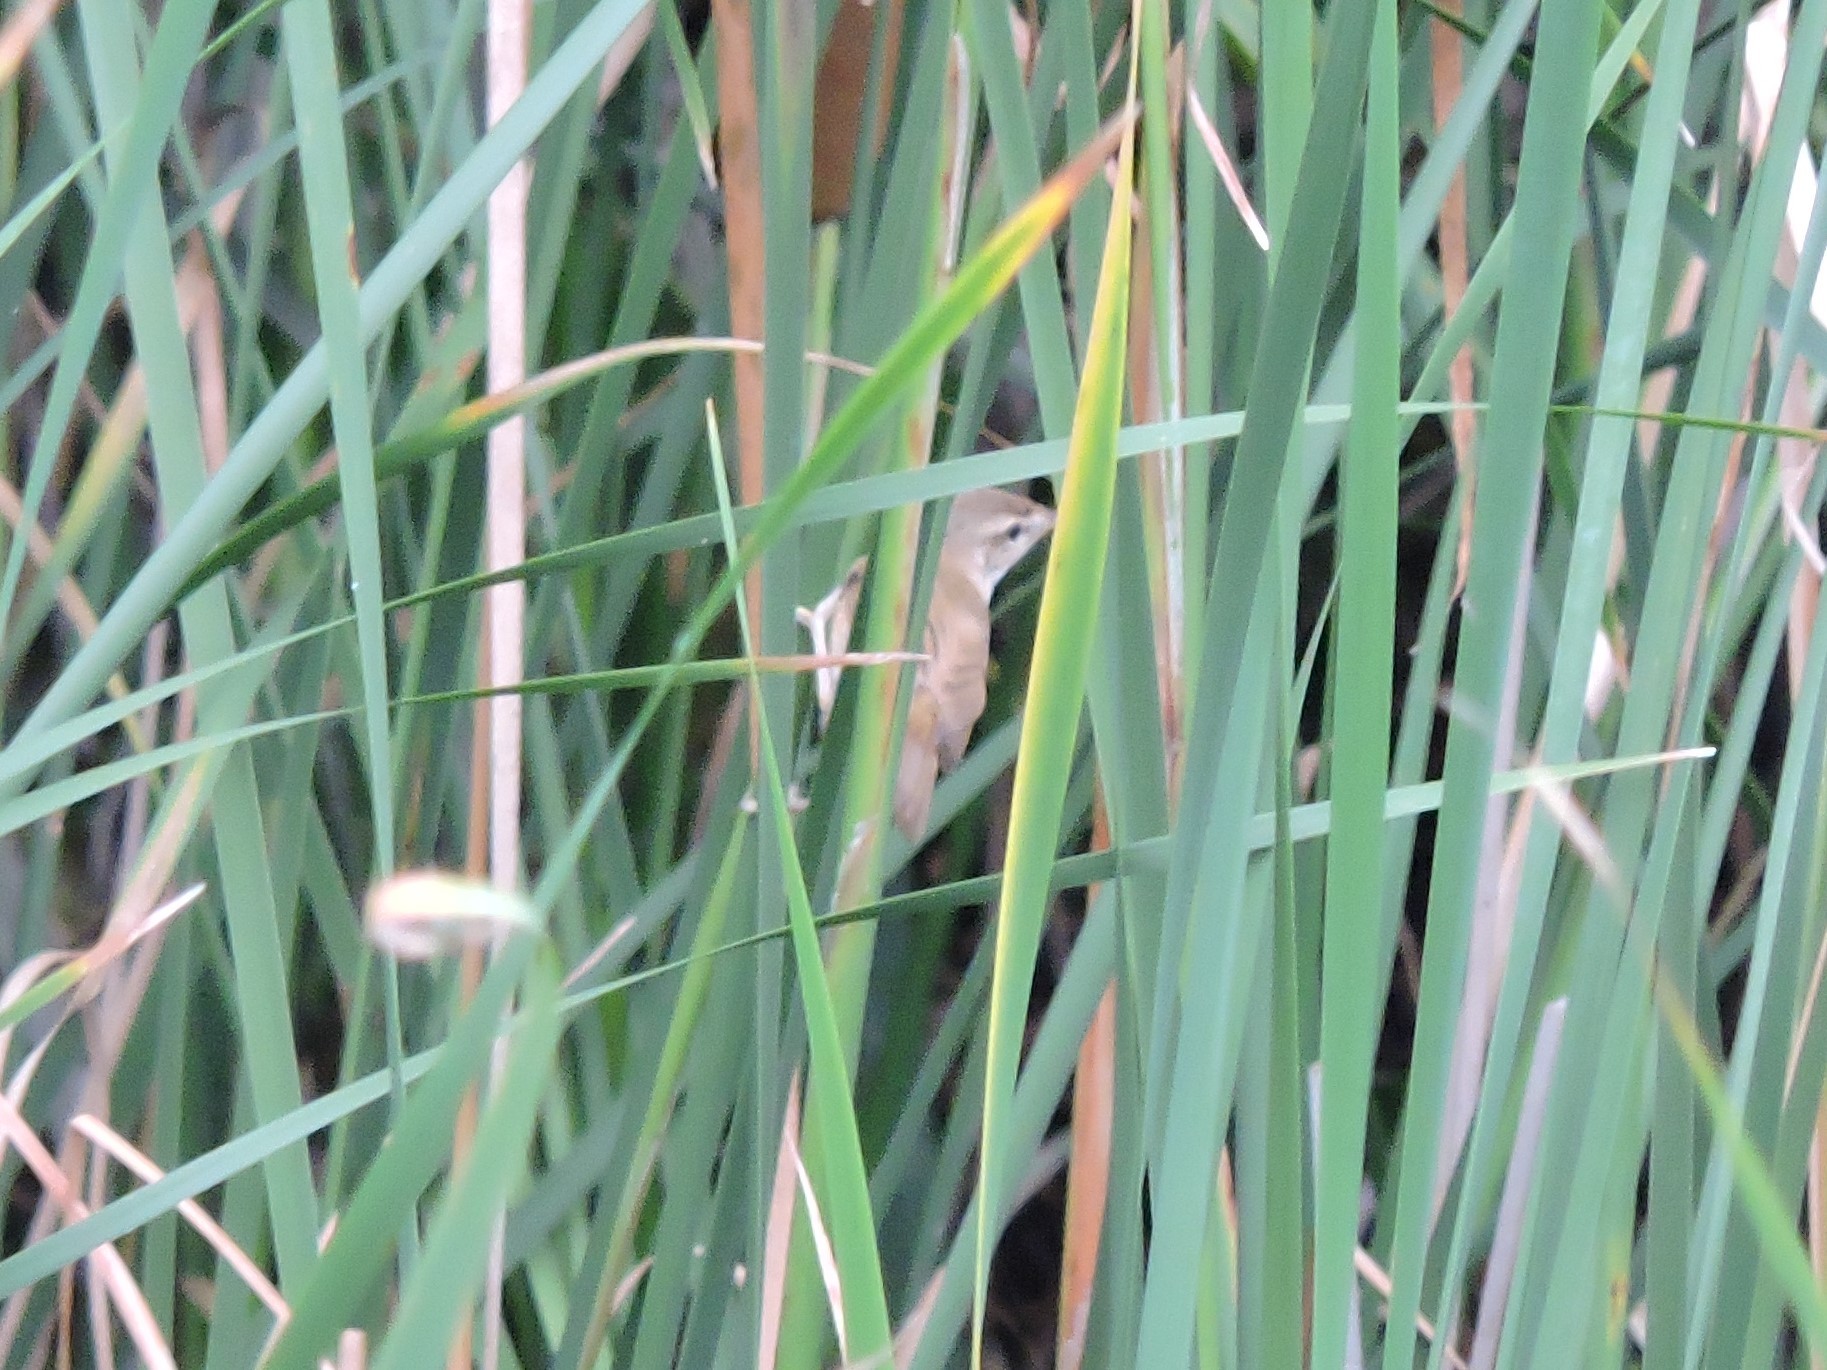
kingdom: Animalia
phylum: Chordata
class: Aves
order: Passeriformes
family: Acrocephalidae
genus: Acrocephalus
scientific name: Acrocephalus agricola
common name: Paddyfield warbler
